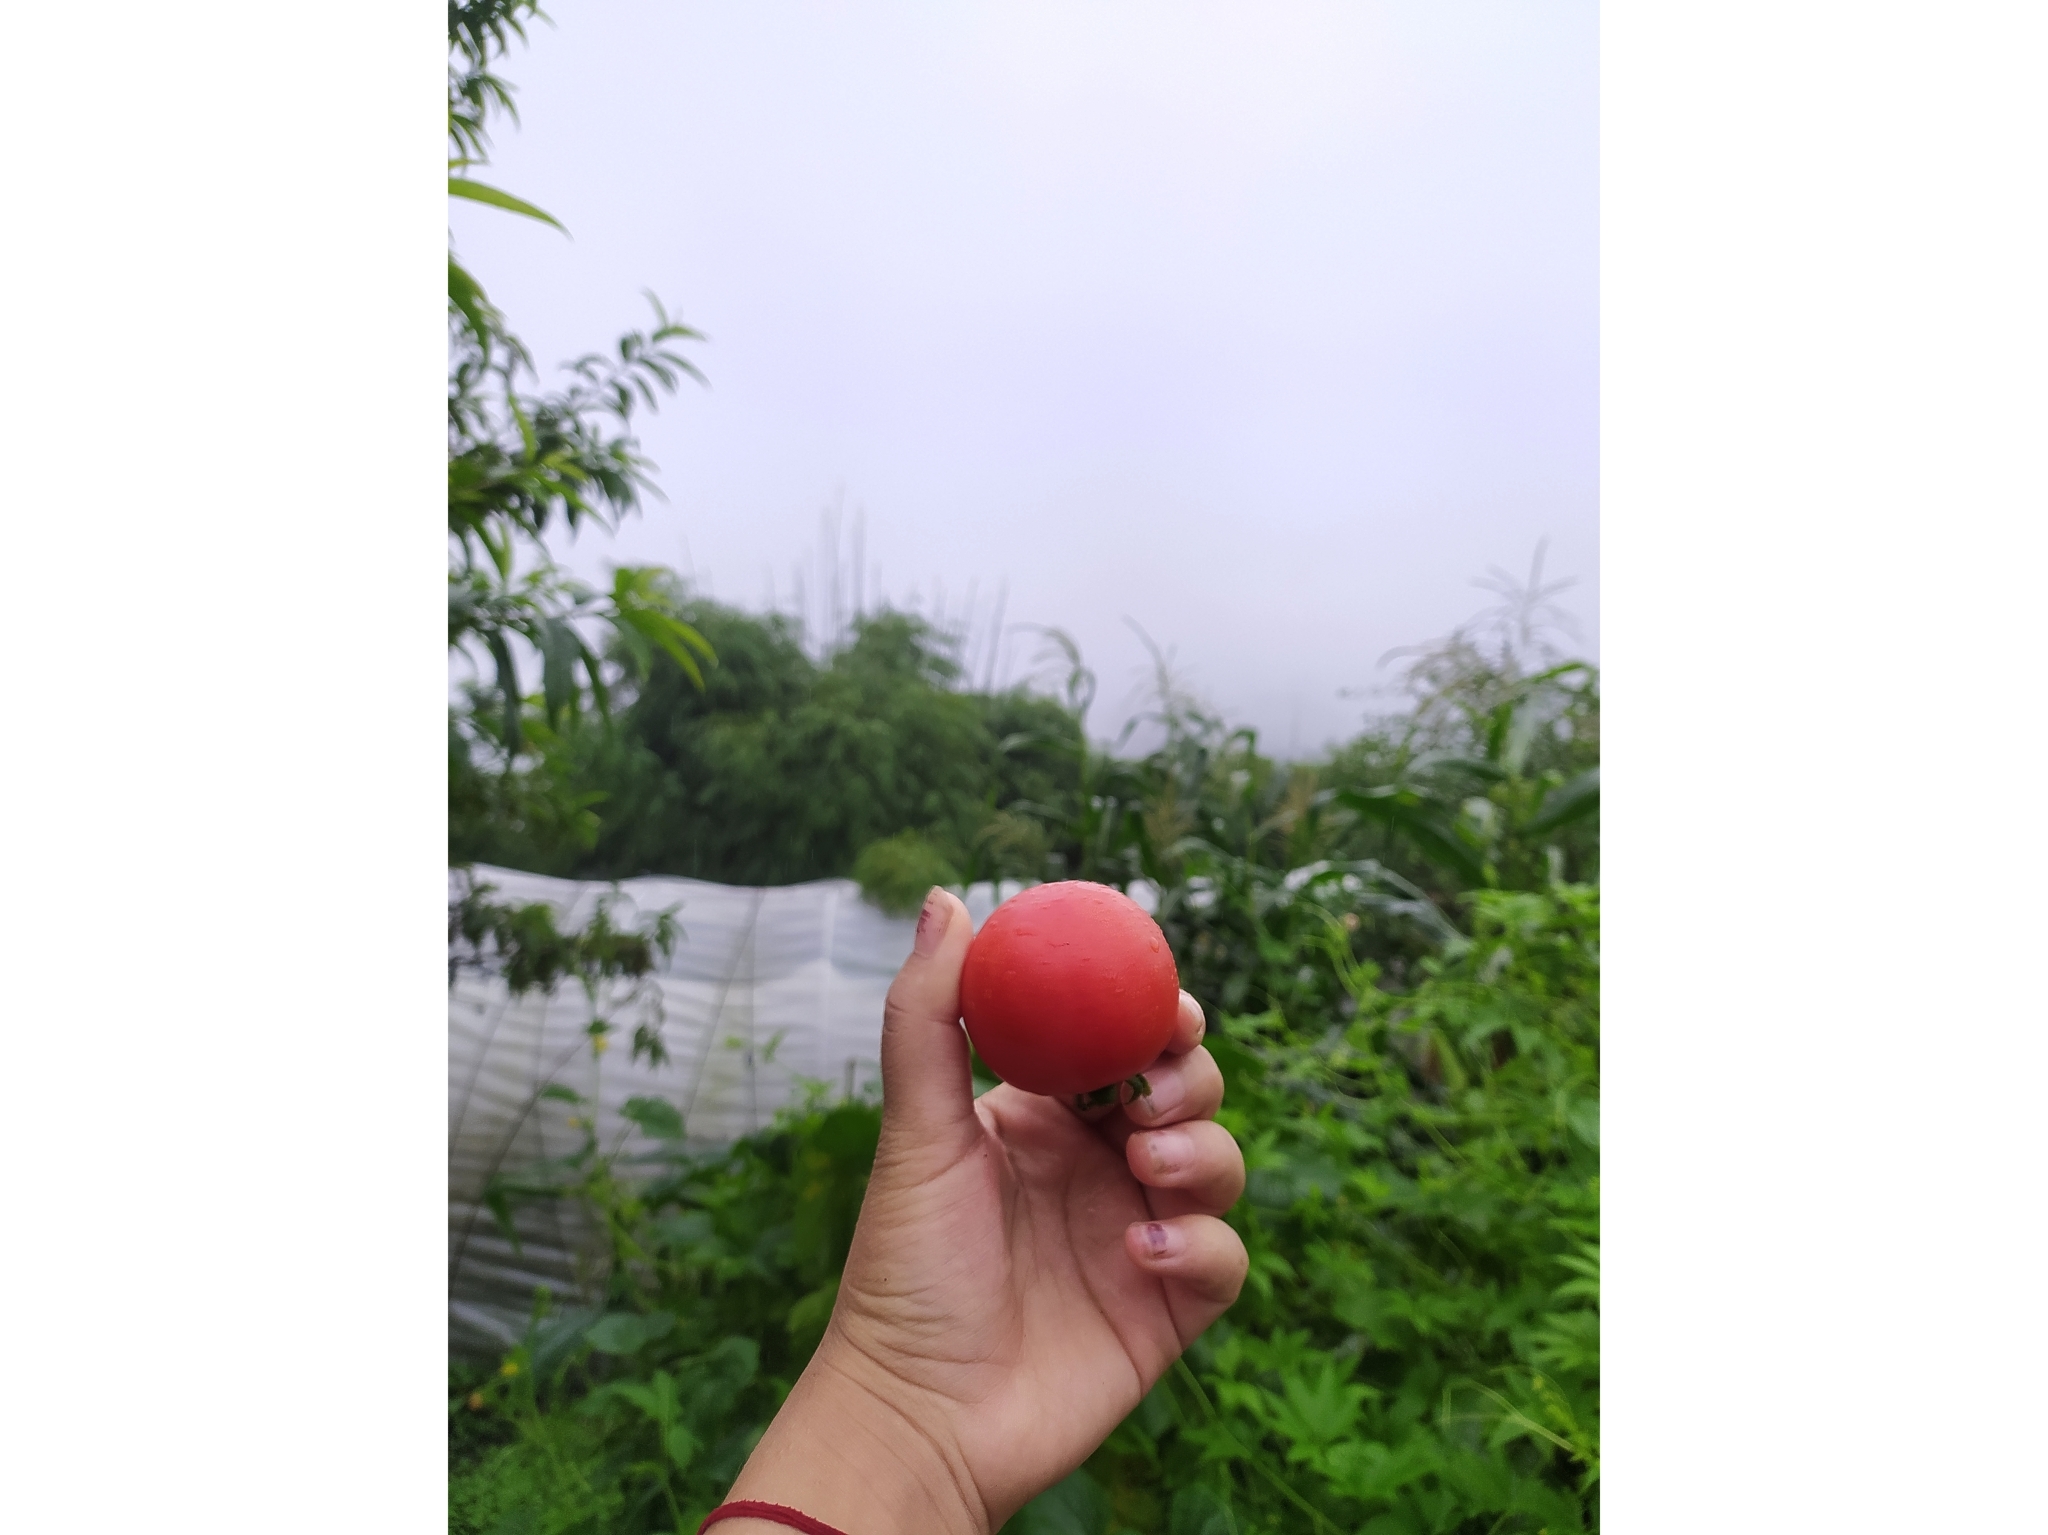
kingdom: Plantae
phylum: Tracheophyta
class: Magnoliopsida
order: Solanales
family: Solanaceae
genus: Solanum
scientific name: Solanum lycopersicum
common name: Garden tomato
